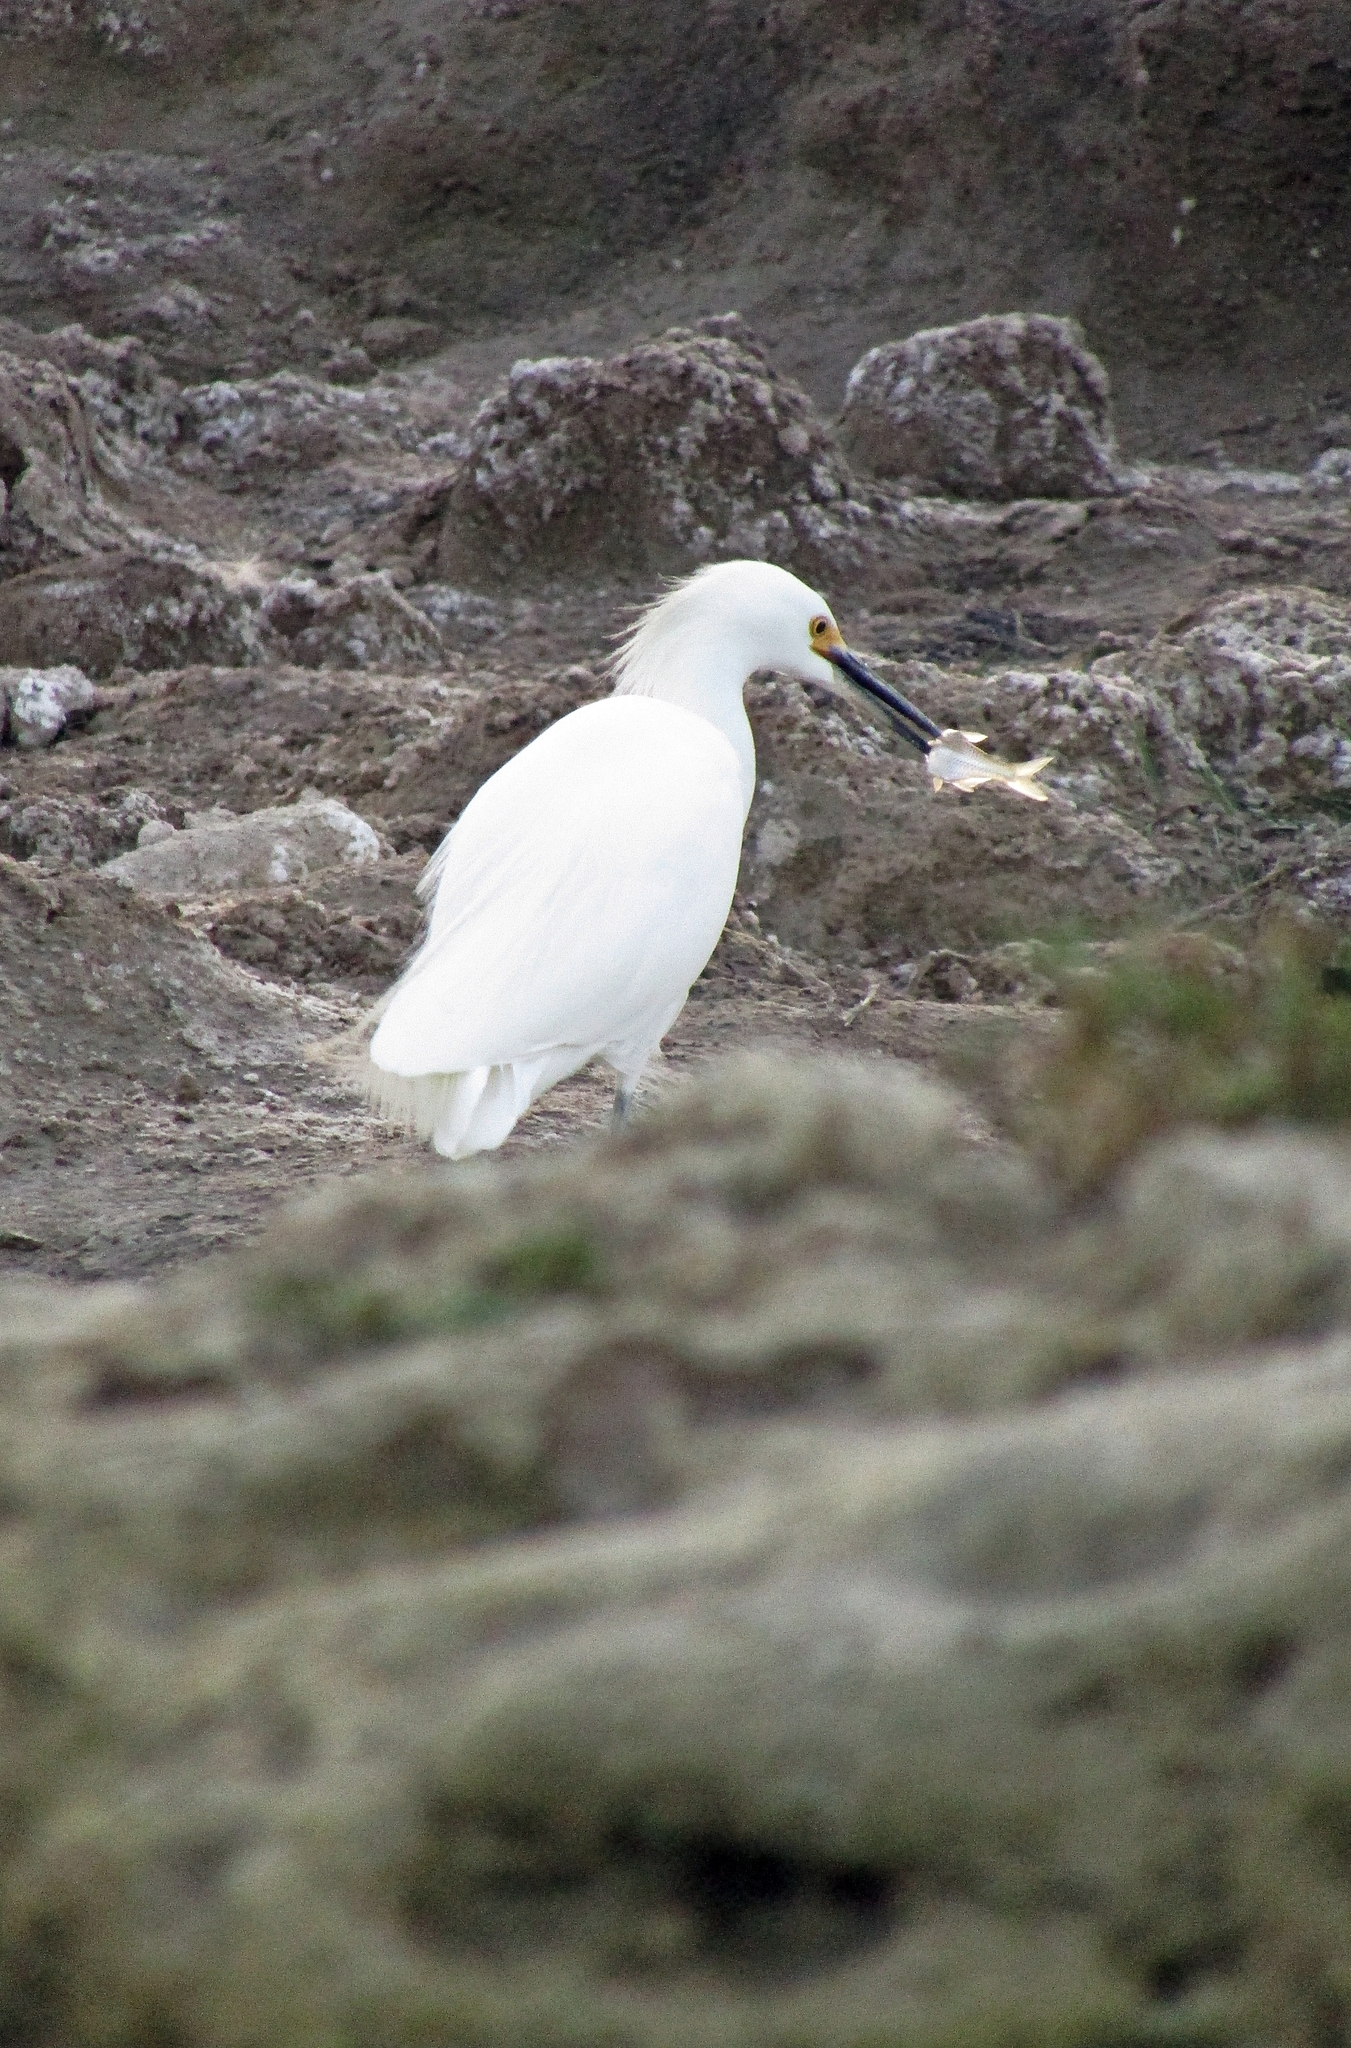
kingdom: Animalia
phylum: Chordata
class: Aves
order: Pelecaniformes
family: Ardeidae
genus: Egretta
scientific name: Egretta thula
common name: Snowy egret
